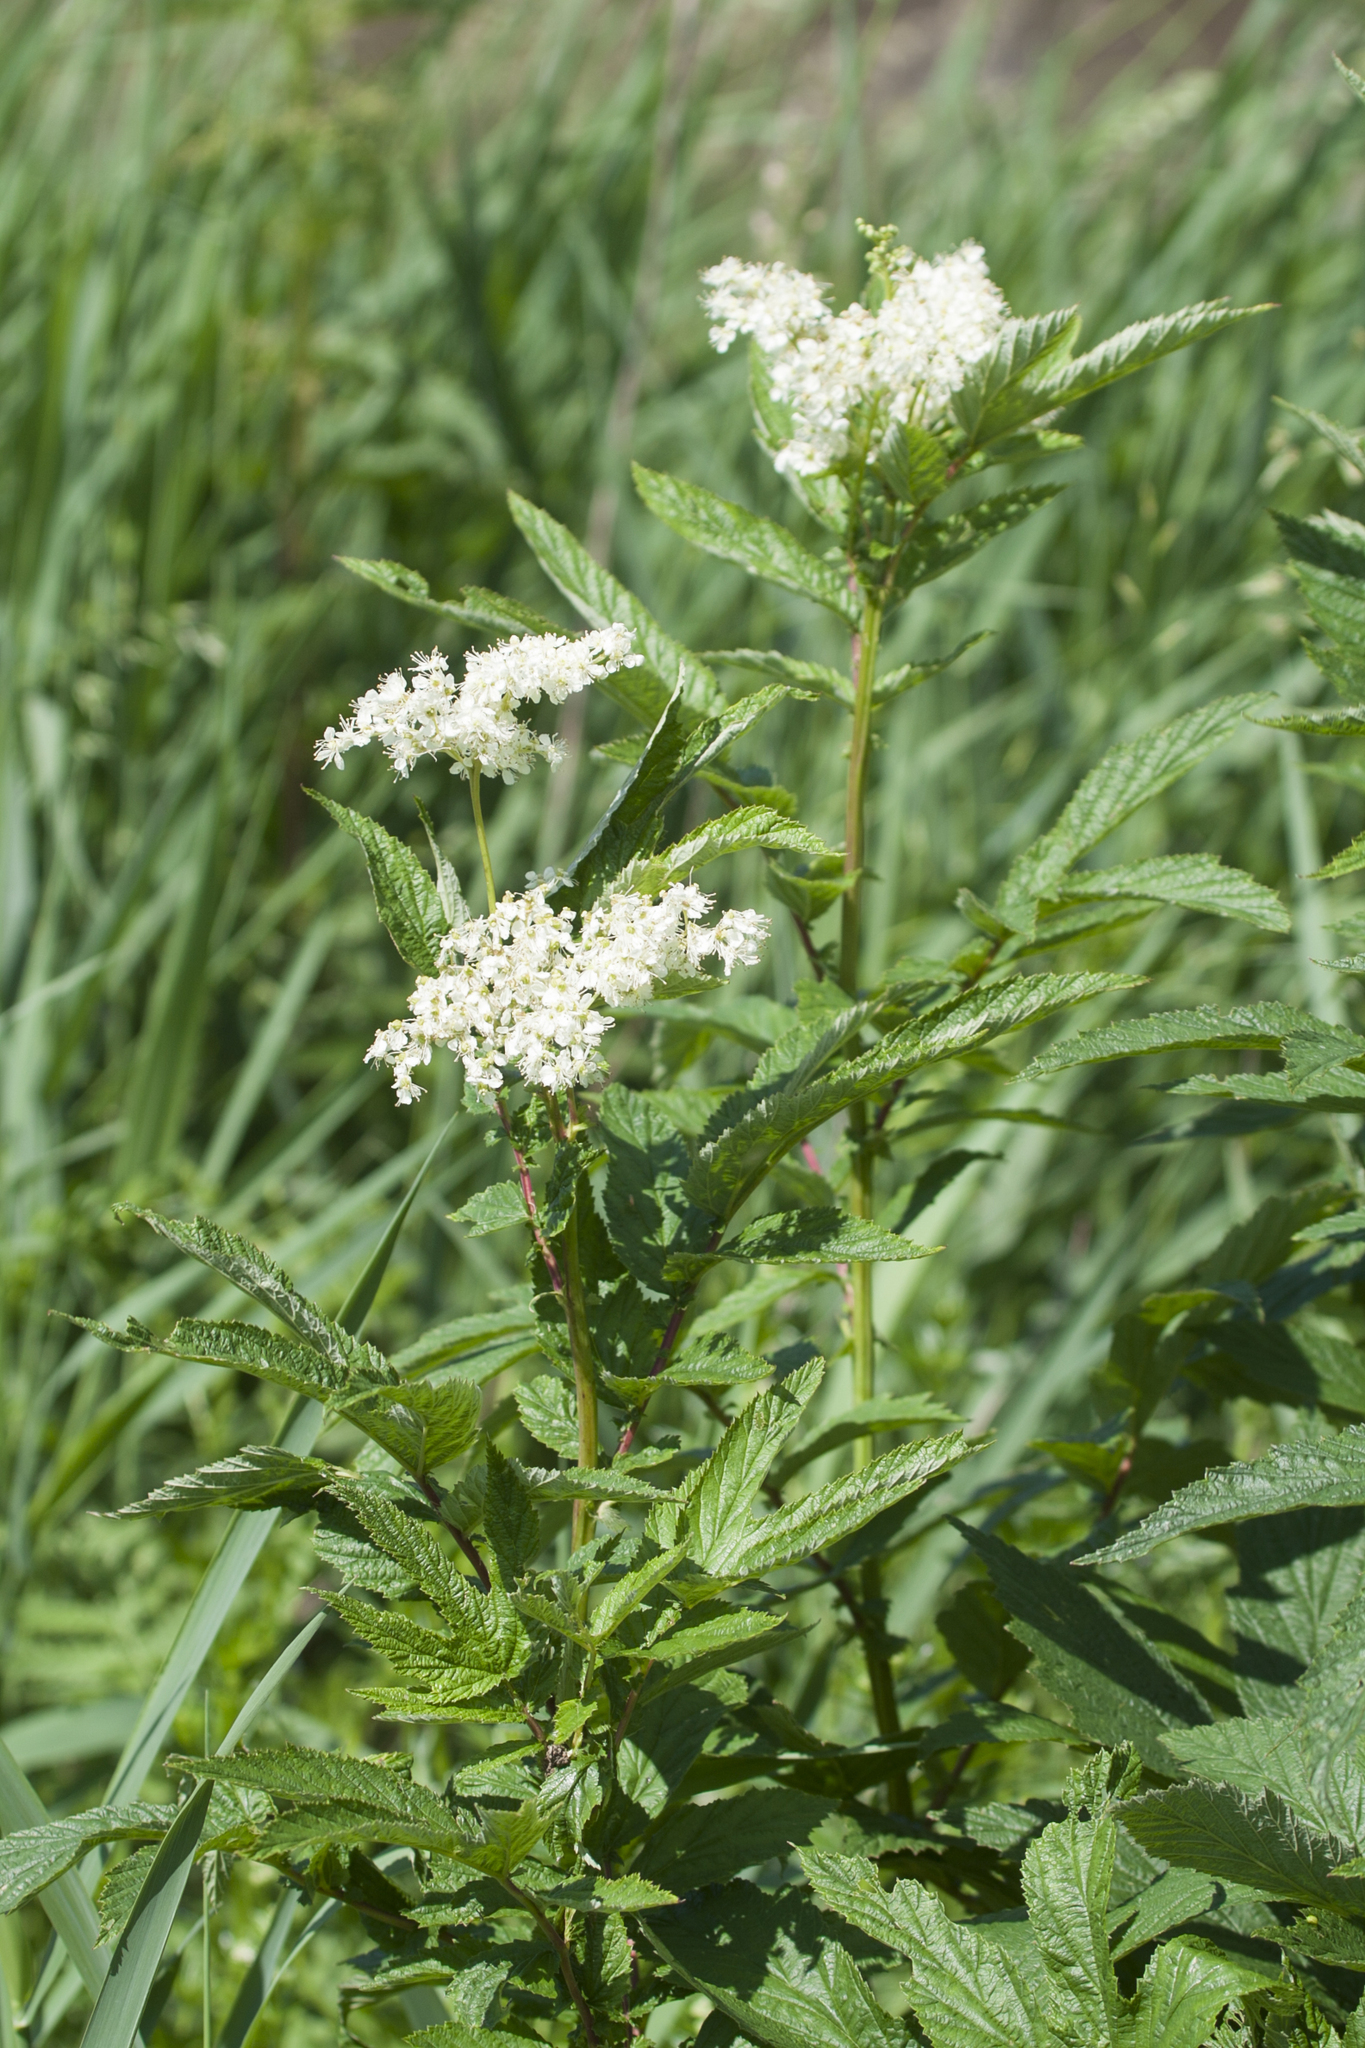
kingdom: Plantae
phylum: Tracheophyta
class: Magnoliopsida
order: Rosales
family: Rosaceae
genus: Filipendula
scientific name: Filipendula ulmaria
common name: Meadowsweet
